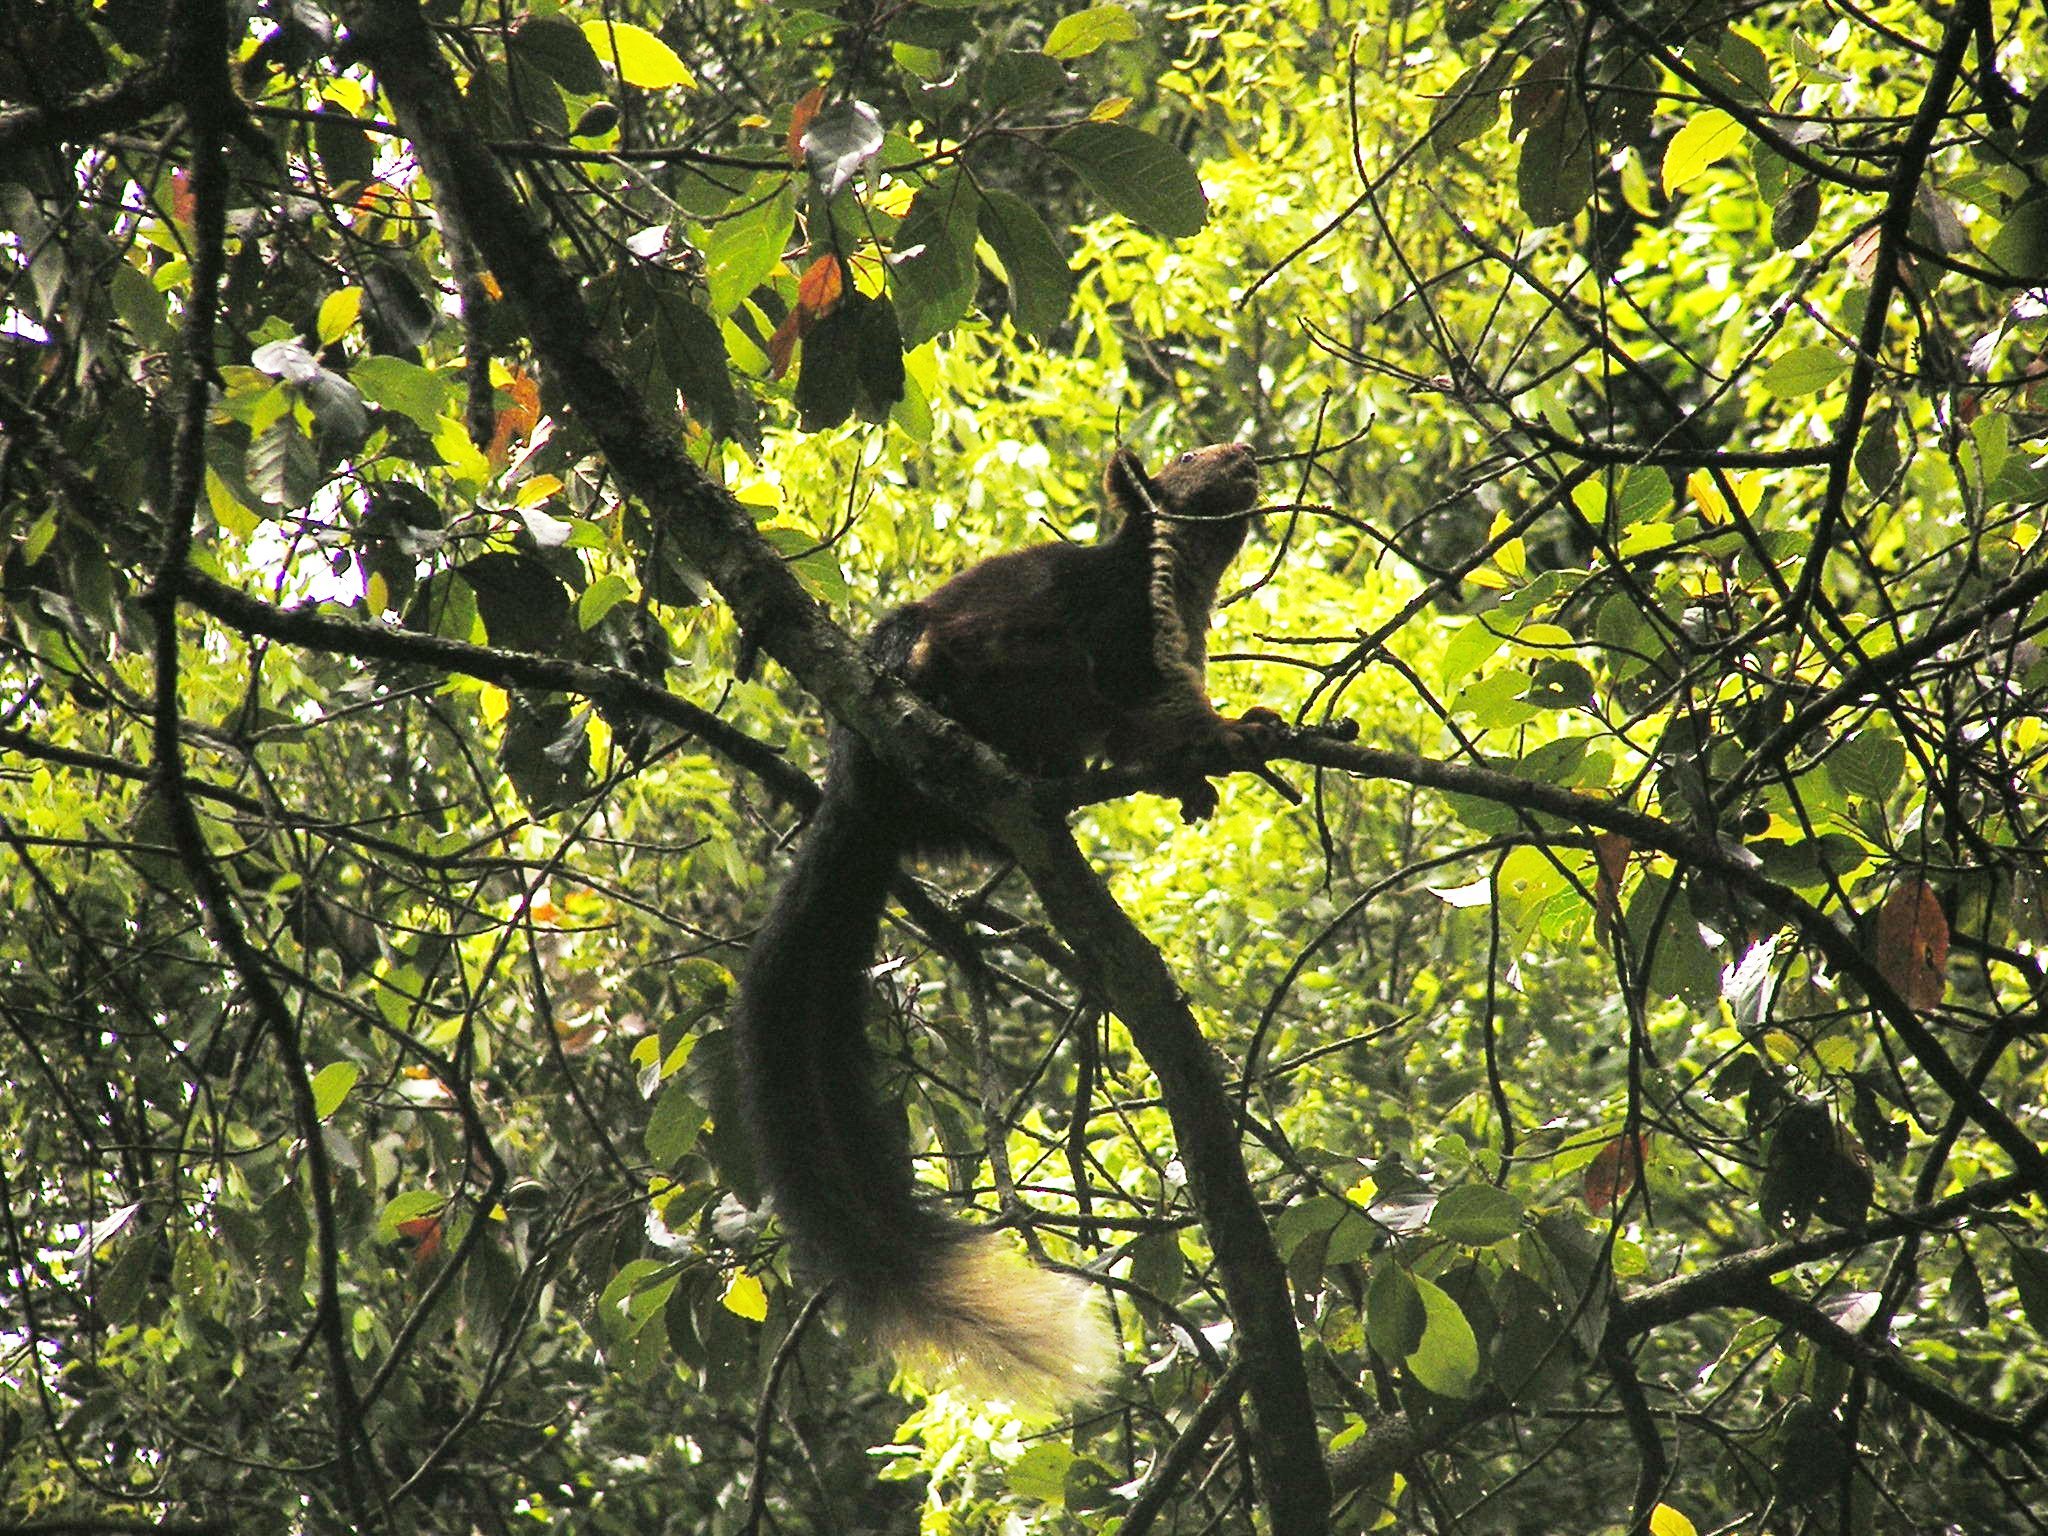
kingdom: Animalia
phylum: Chordata
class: Mammalia
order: Rodentia
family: Sciuridae
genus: Ratufa
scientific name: Ratufa indica
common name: Indian giant squirrel
